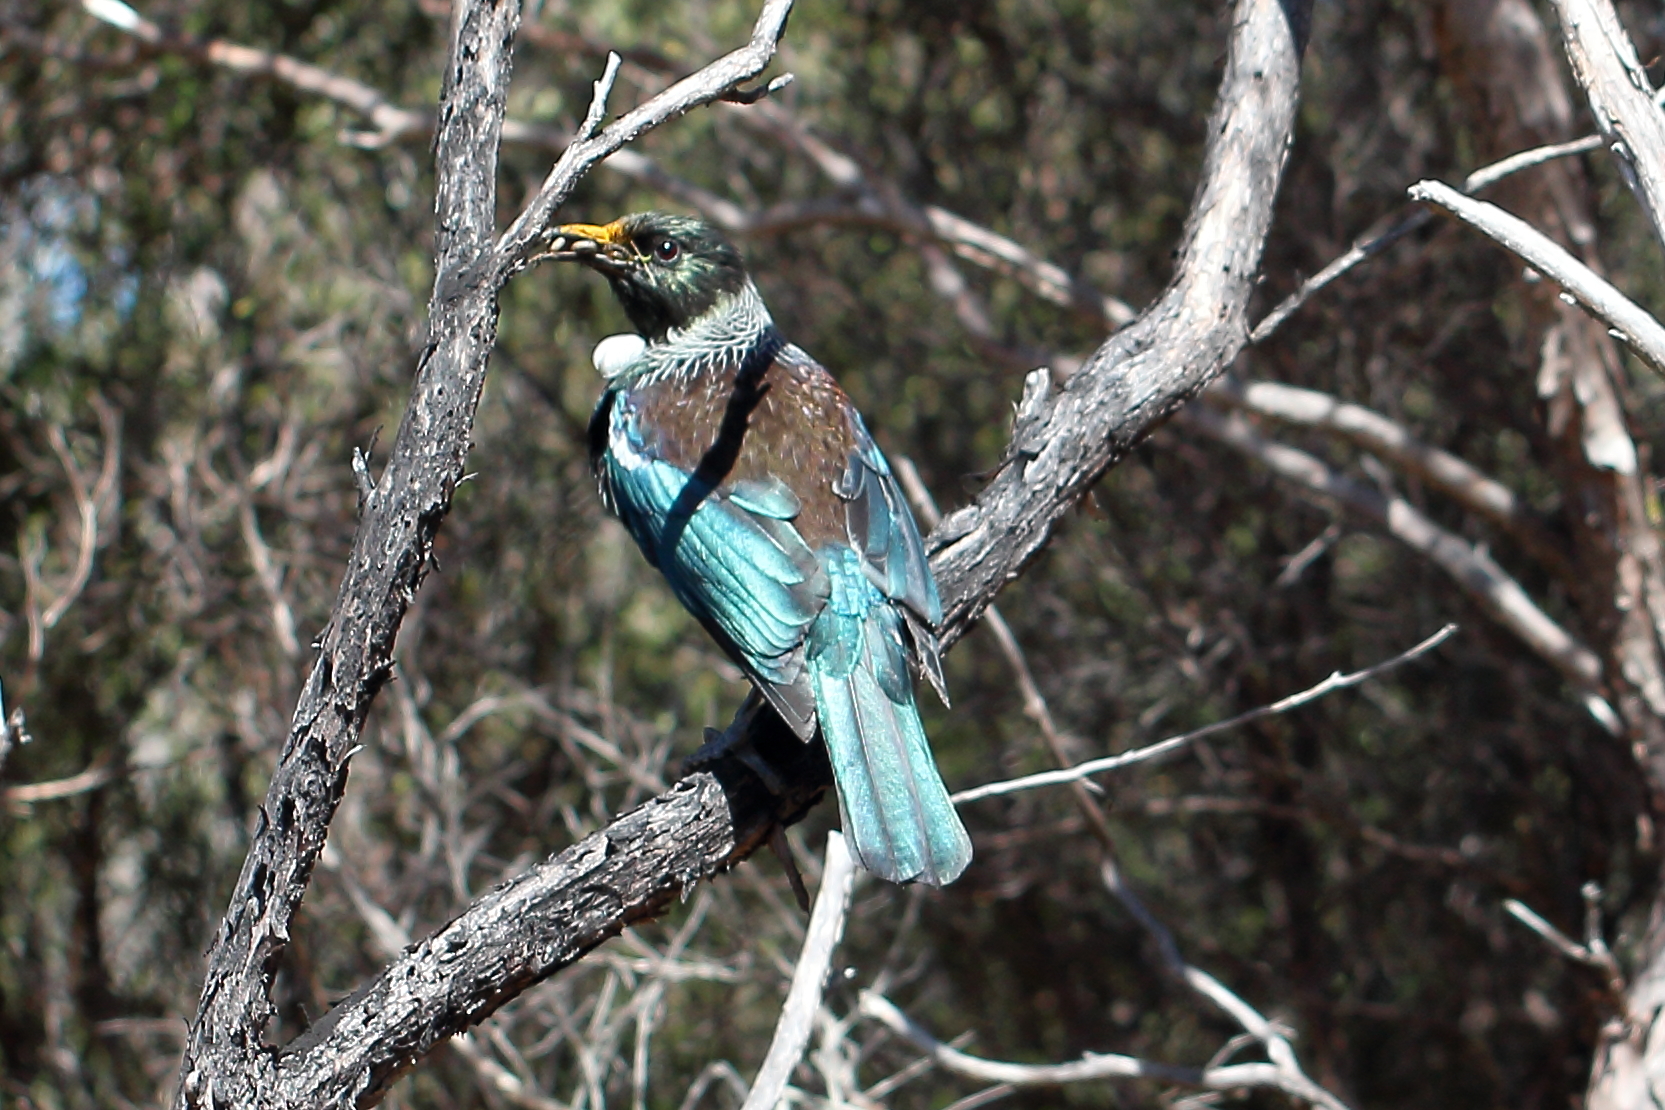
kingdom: Animalia
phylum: Chordata
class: Aves
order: Passeriformes
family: Meliphagidae
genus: Prosthemadera
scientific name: Prosthemadera novaeseelandiae
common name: Tui
